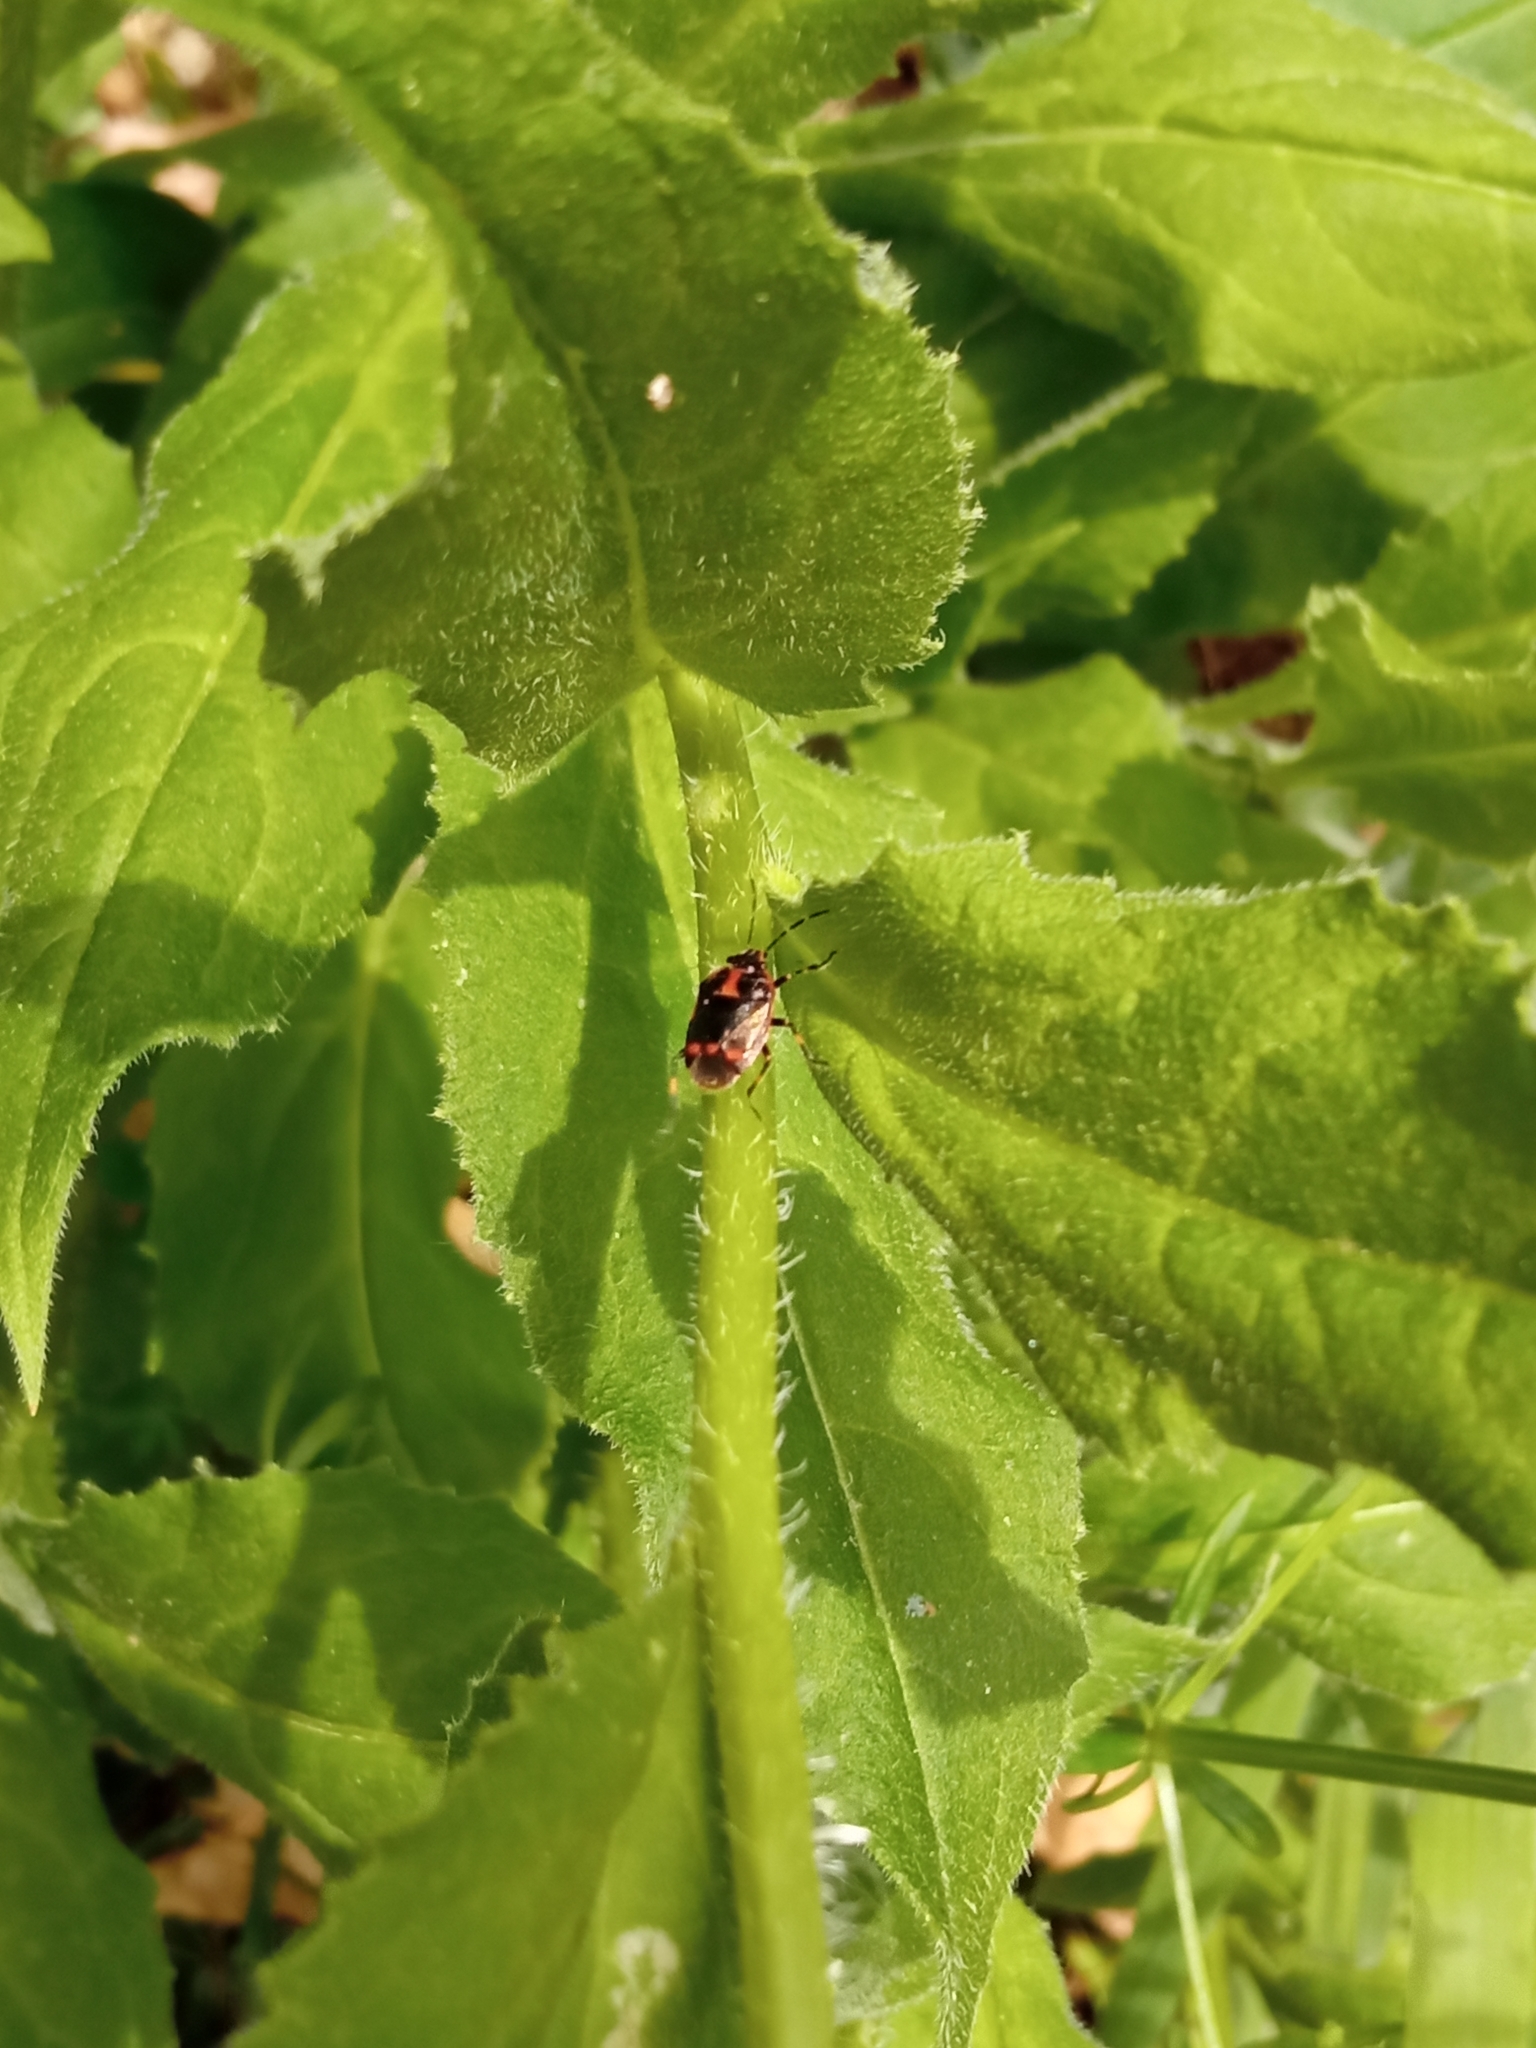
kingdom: Animalia
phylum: Arthropoda
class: Insecta
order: Hemiptera
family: Pentatomidae
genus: Eurydema
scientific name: Eurydema oleracea
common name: Cabbage bug
